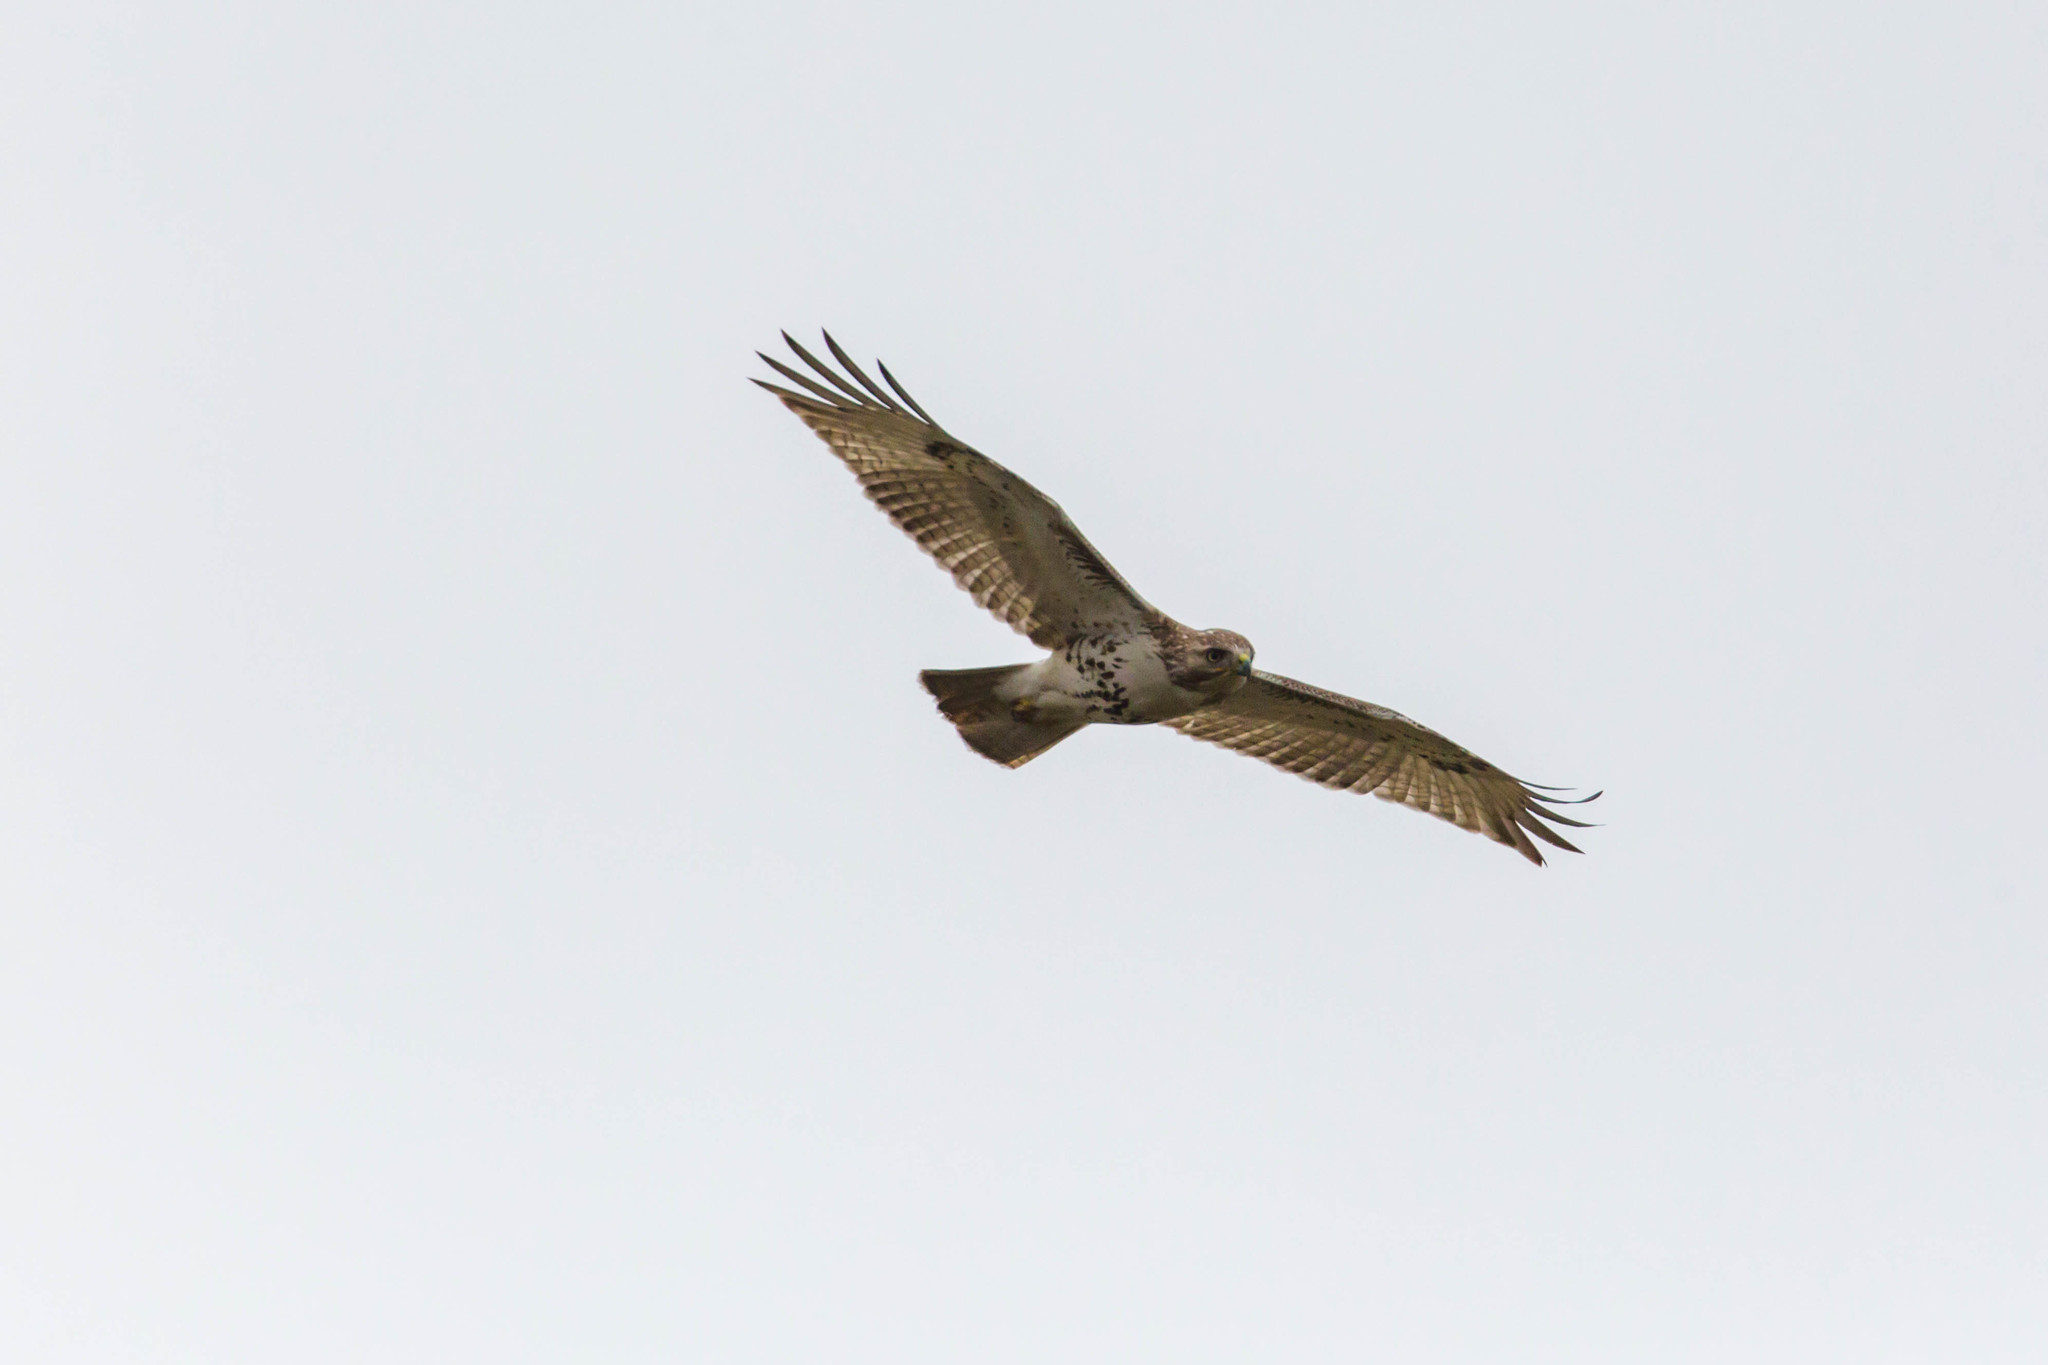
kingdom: Animalia
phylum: Chordata
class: Aves
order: Accipitriformes
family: Accipitridae
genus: Buteo
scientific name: Buteo jamaicensis
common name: Red-tailed hawk
